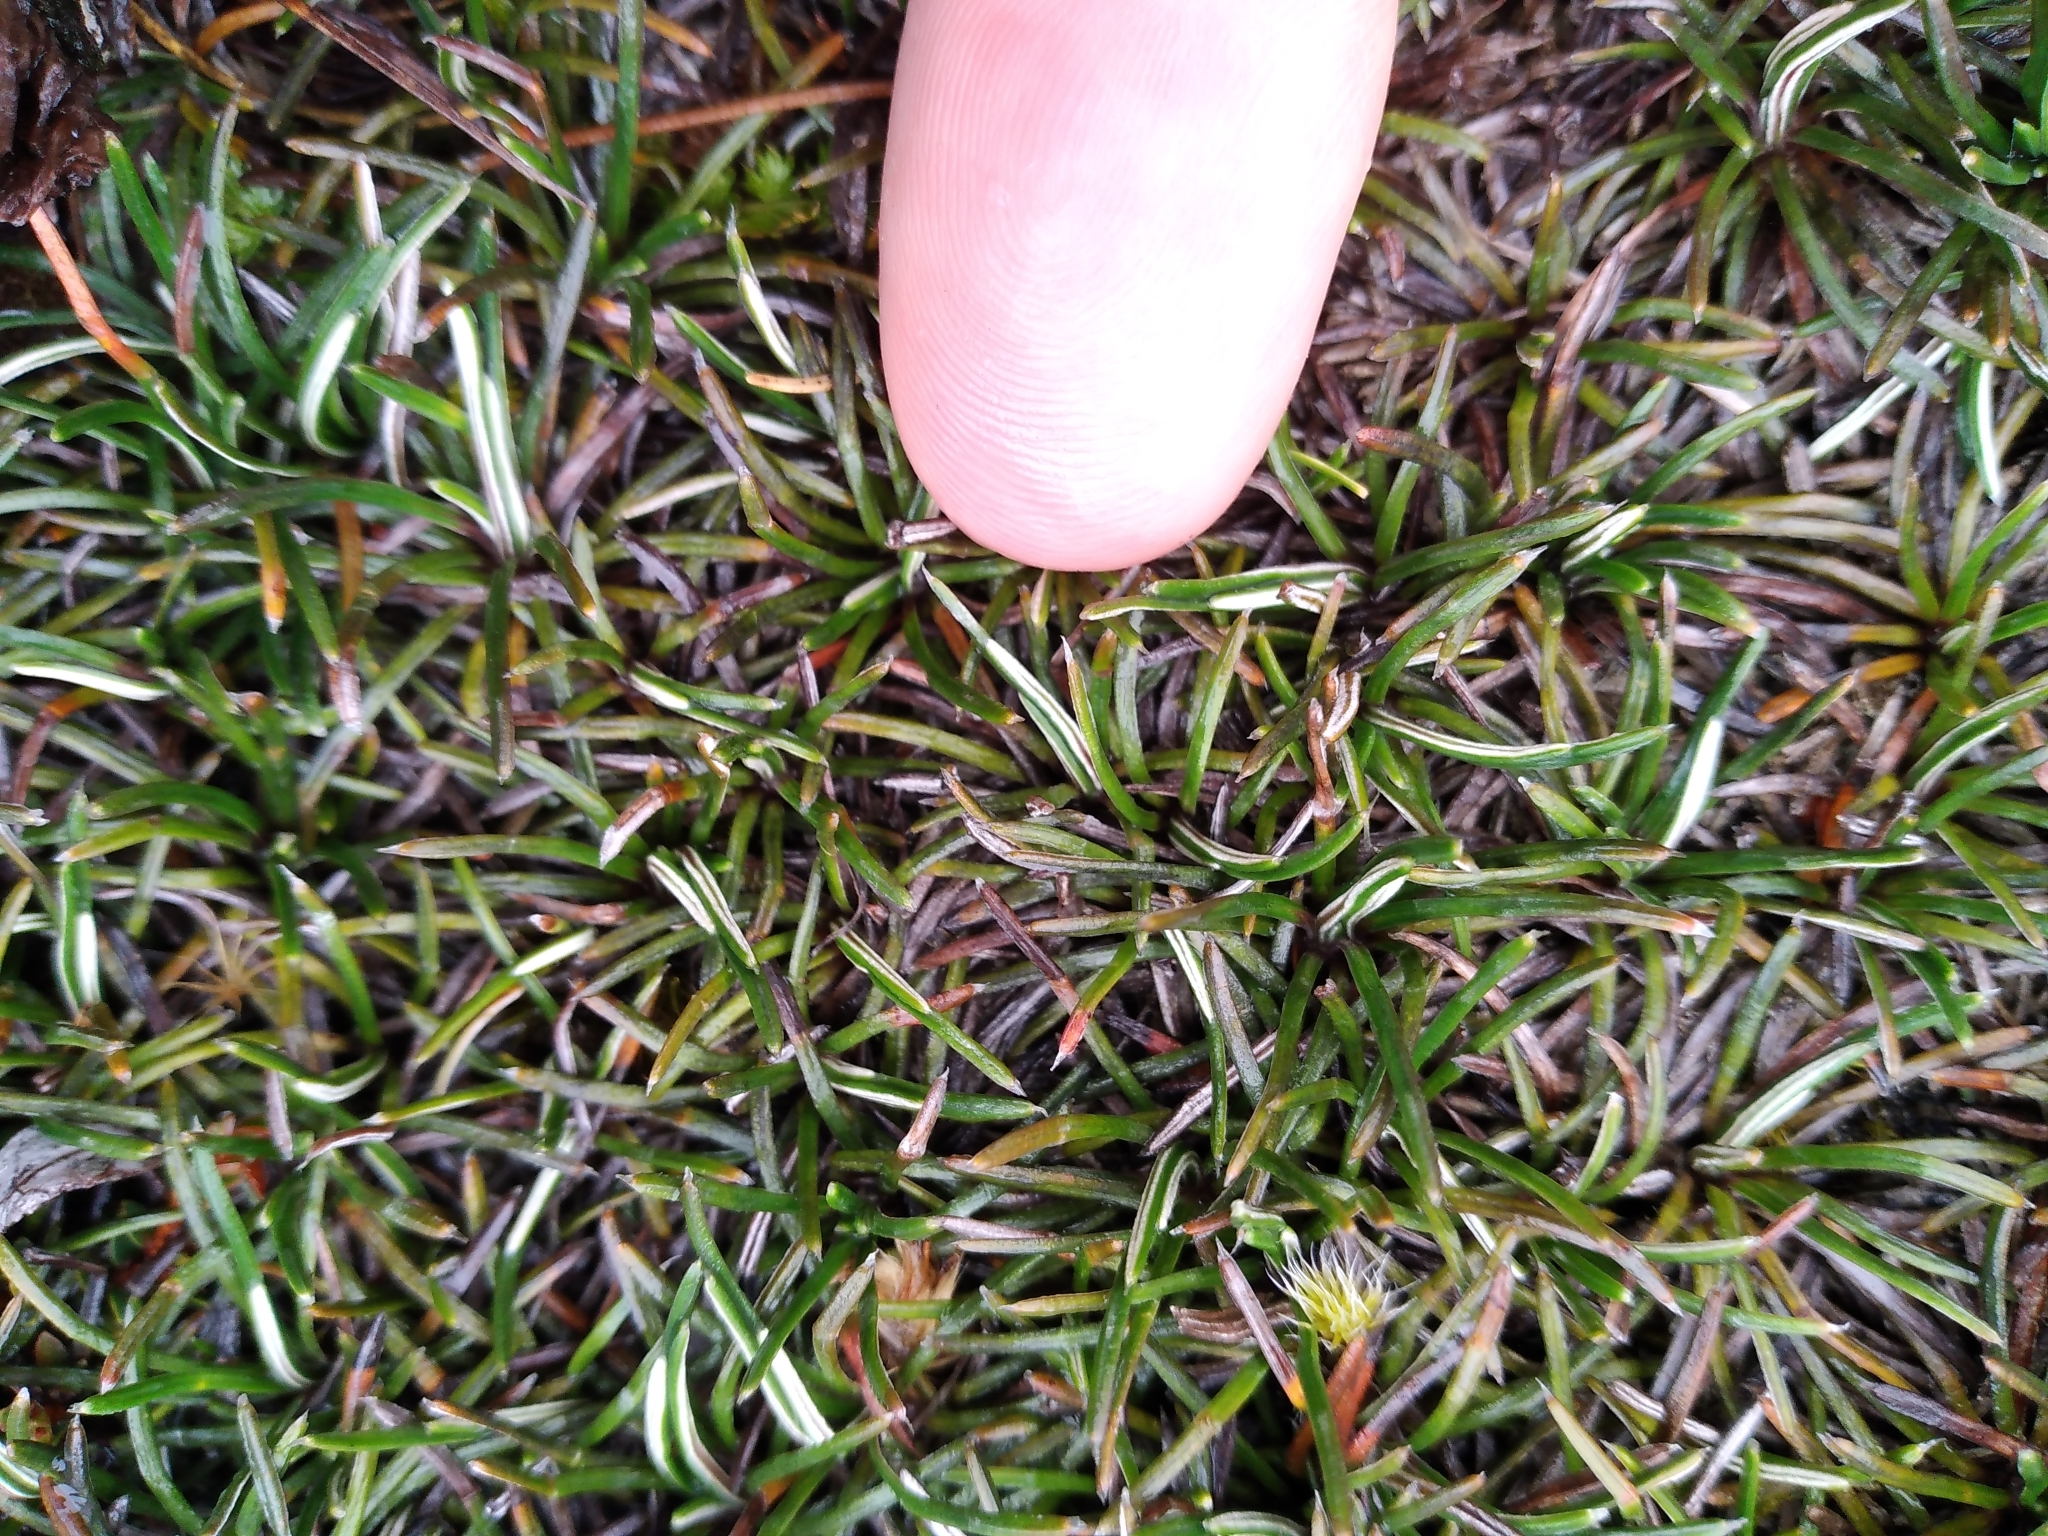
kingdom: Plantae
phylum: Tracheophyta
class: Magnoliopsida
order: Asterales
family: Asteraceae
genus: Celmisia
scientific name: Celmisia similis
